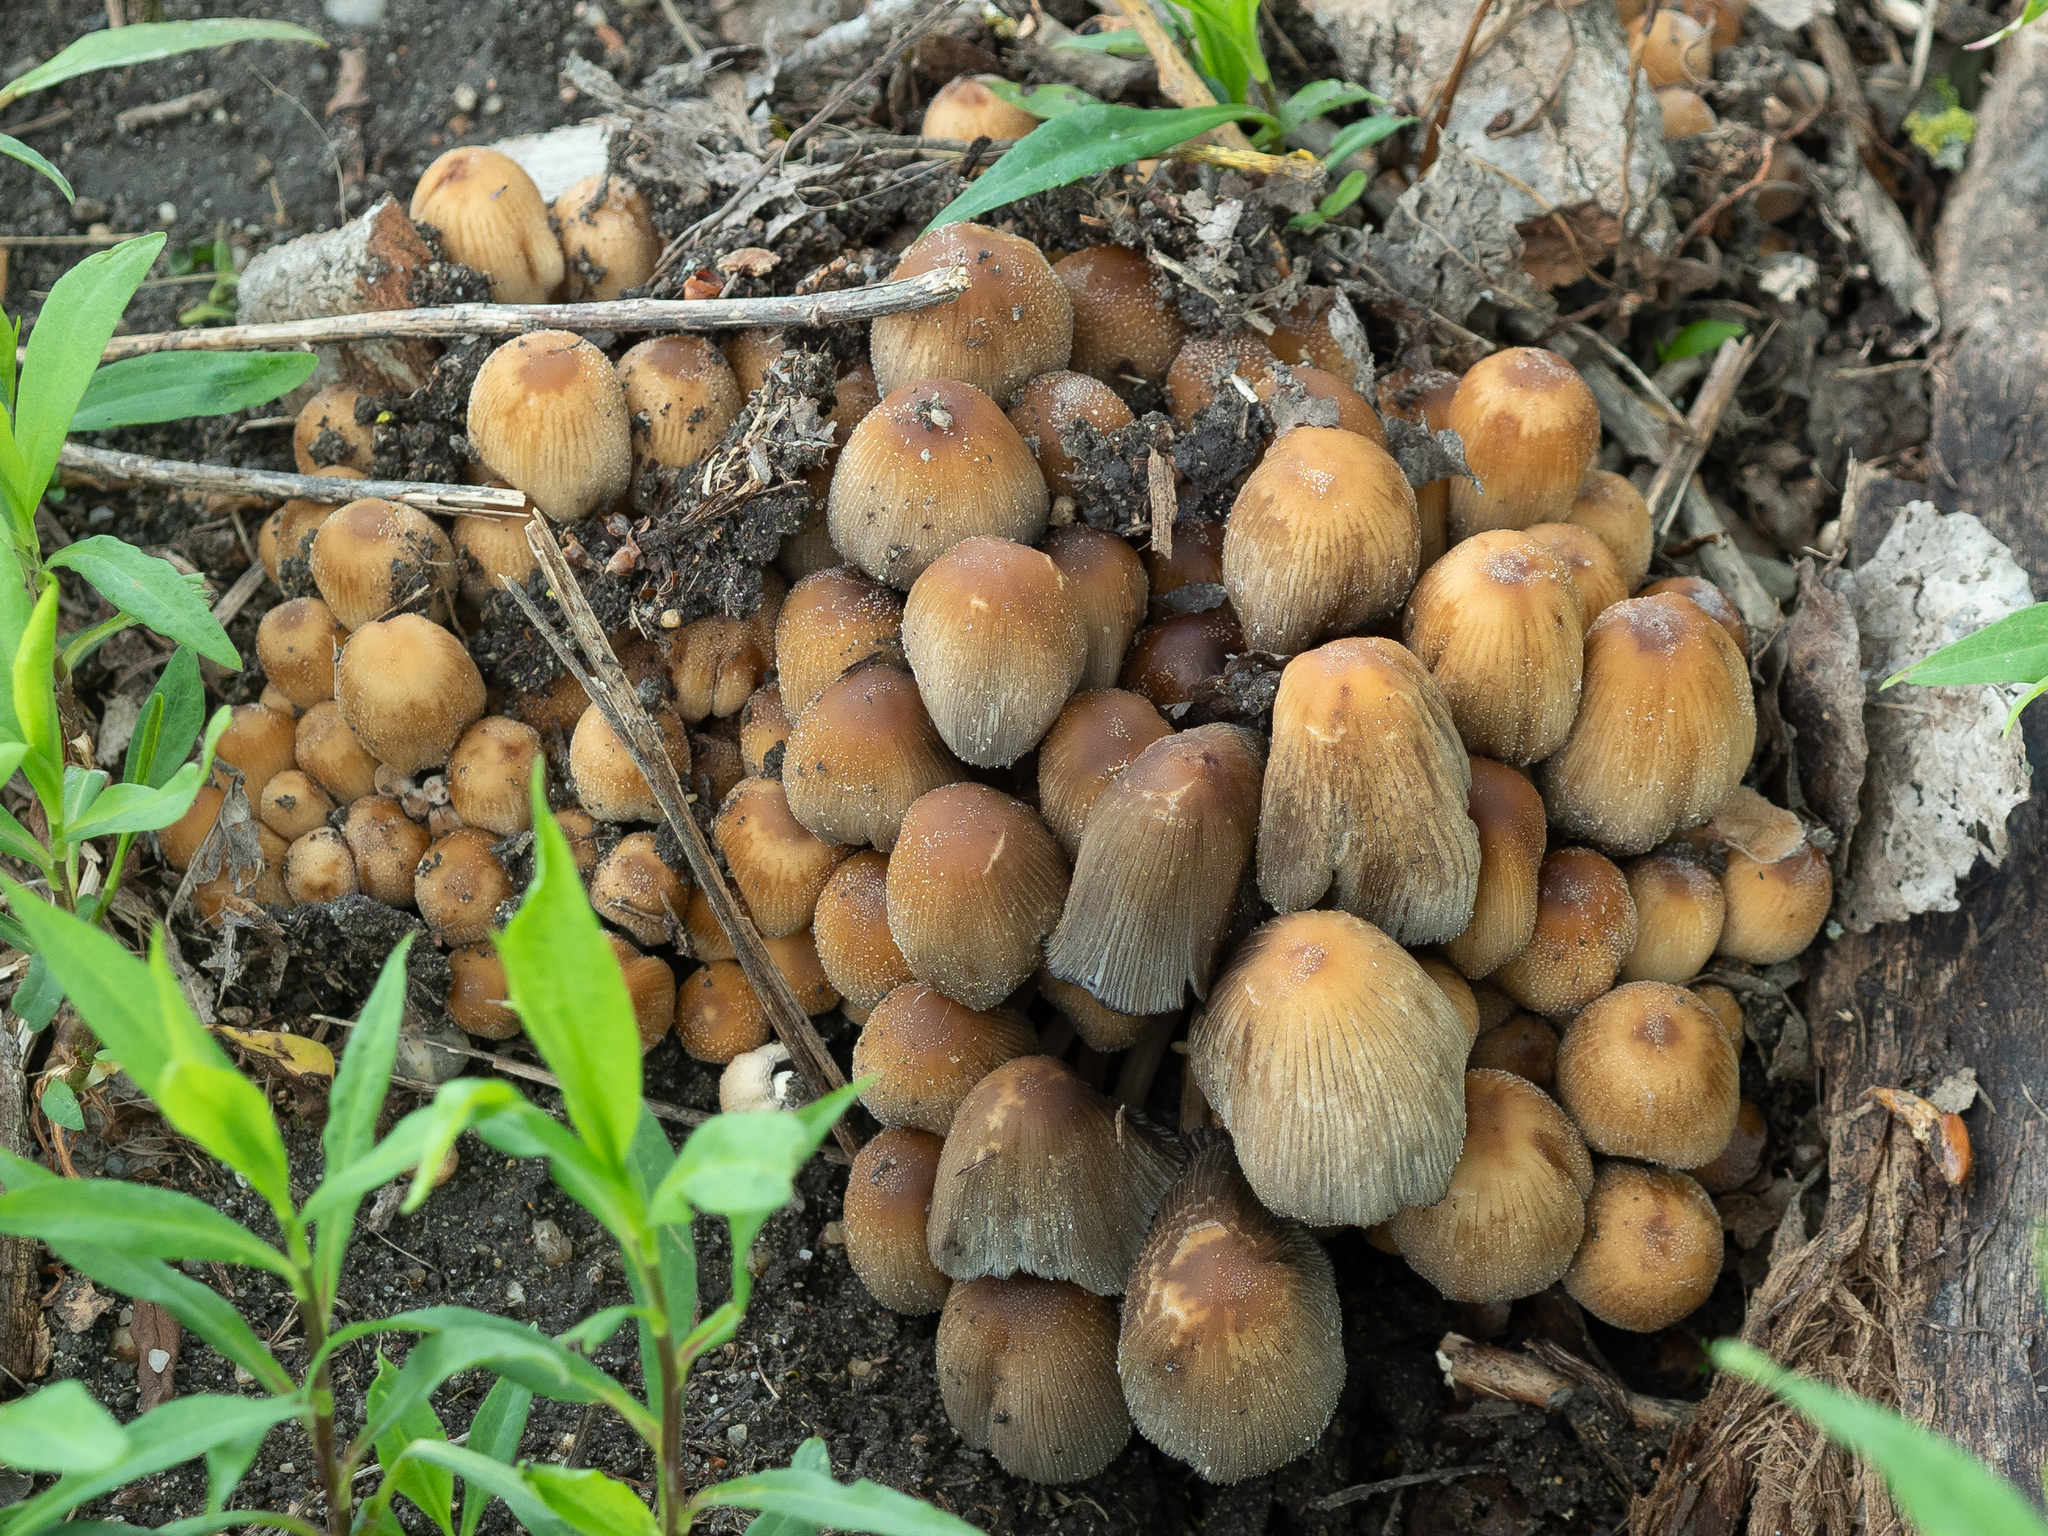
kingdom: Fungi
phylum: Basidiomycota
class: Agaricomycetes
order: Agaricales
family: Psathyrellaceae
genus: Coprinellus
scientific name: Coprinellus micaceus
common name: Glistening ink-cap
